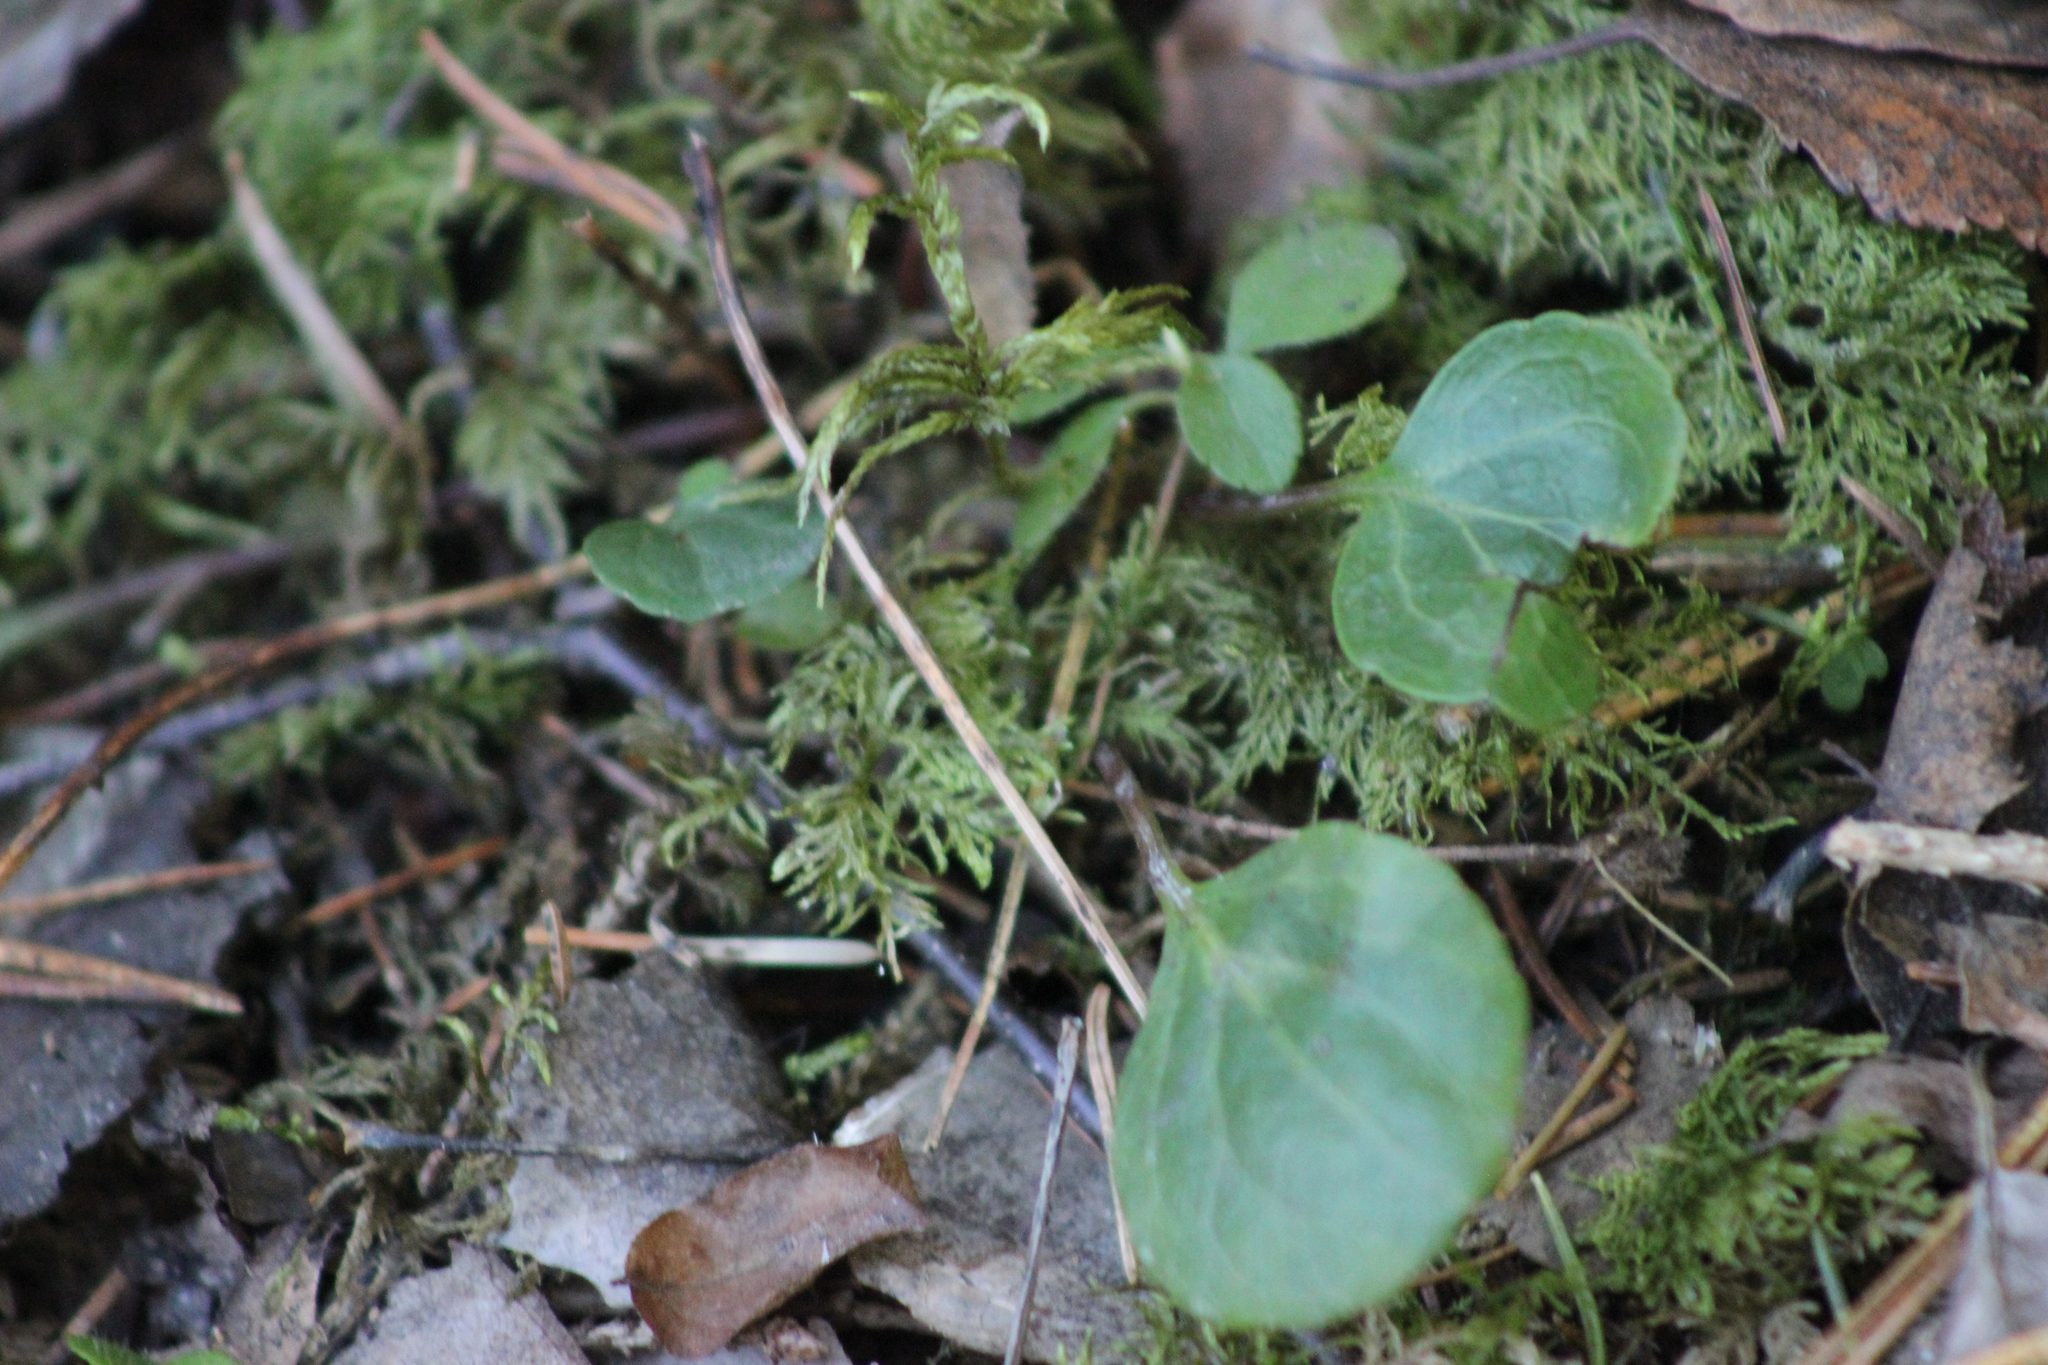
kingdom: Plantae
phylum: Tracheophyta
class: Magnoliopsida
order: Ericales
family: Ericaceae
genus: Pyrola
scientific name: Pyrola chlorantha
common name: Green wintergreen
